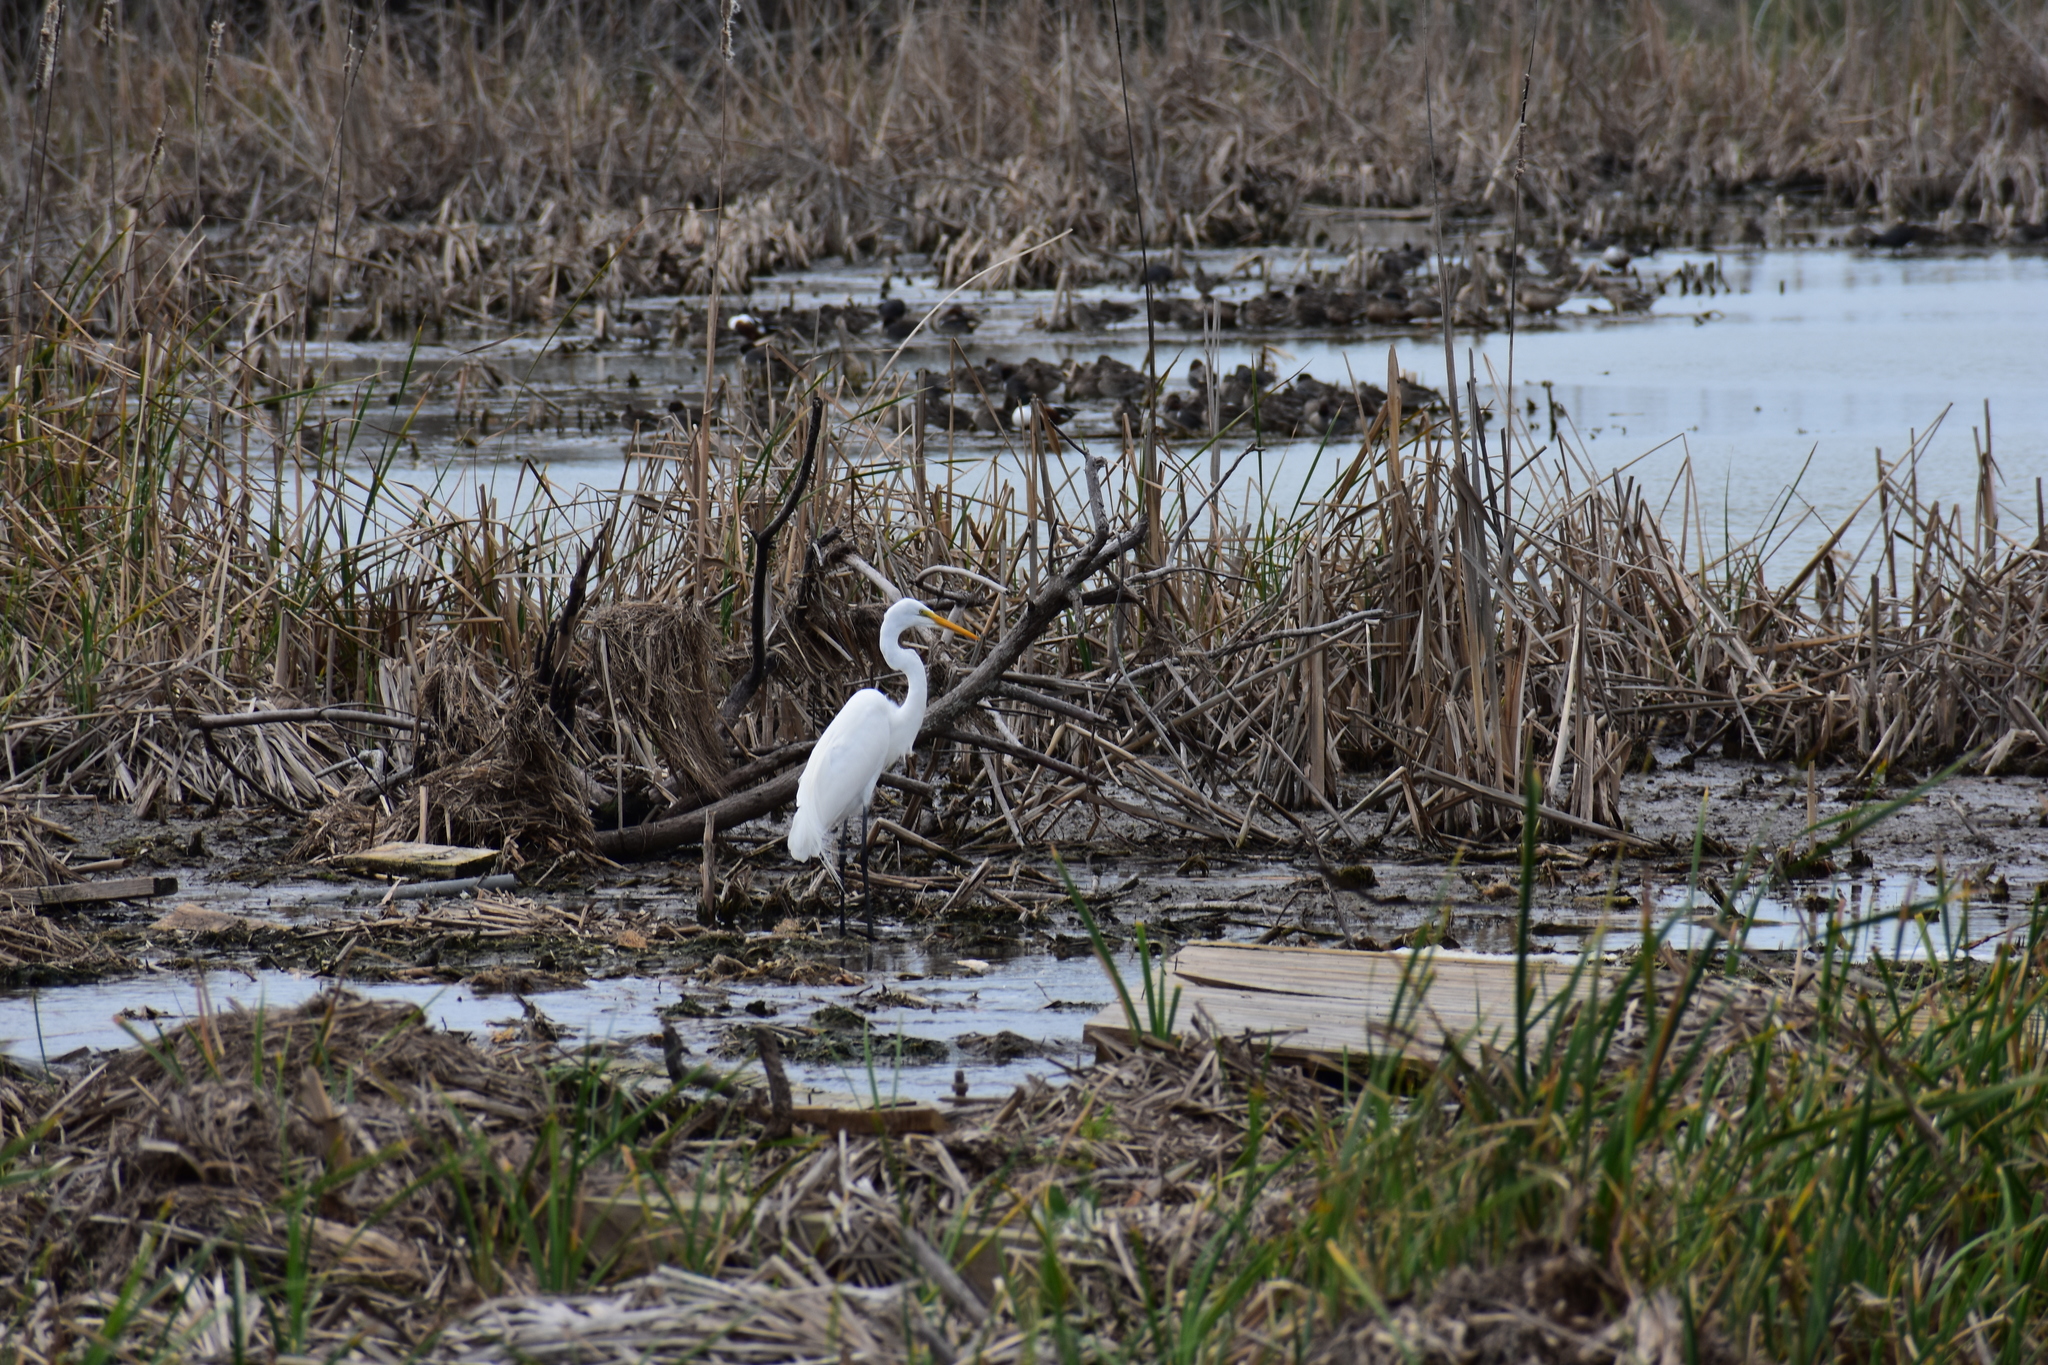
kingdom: Animalia
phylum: Chordata
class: Aves
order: Pelecaniformes
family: Ardeidae
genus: Ardea
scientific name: Ardea alba
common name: Great egret
